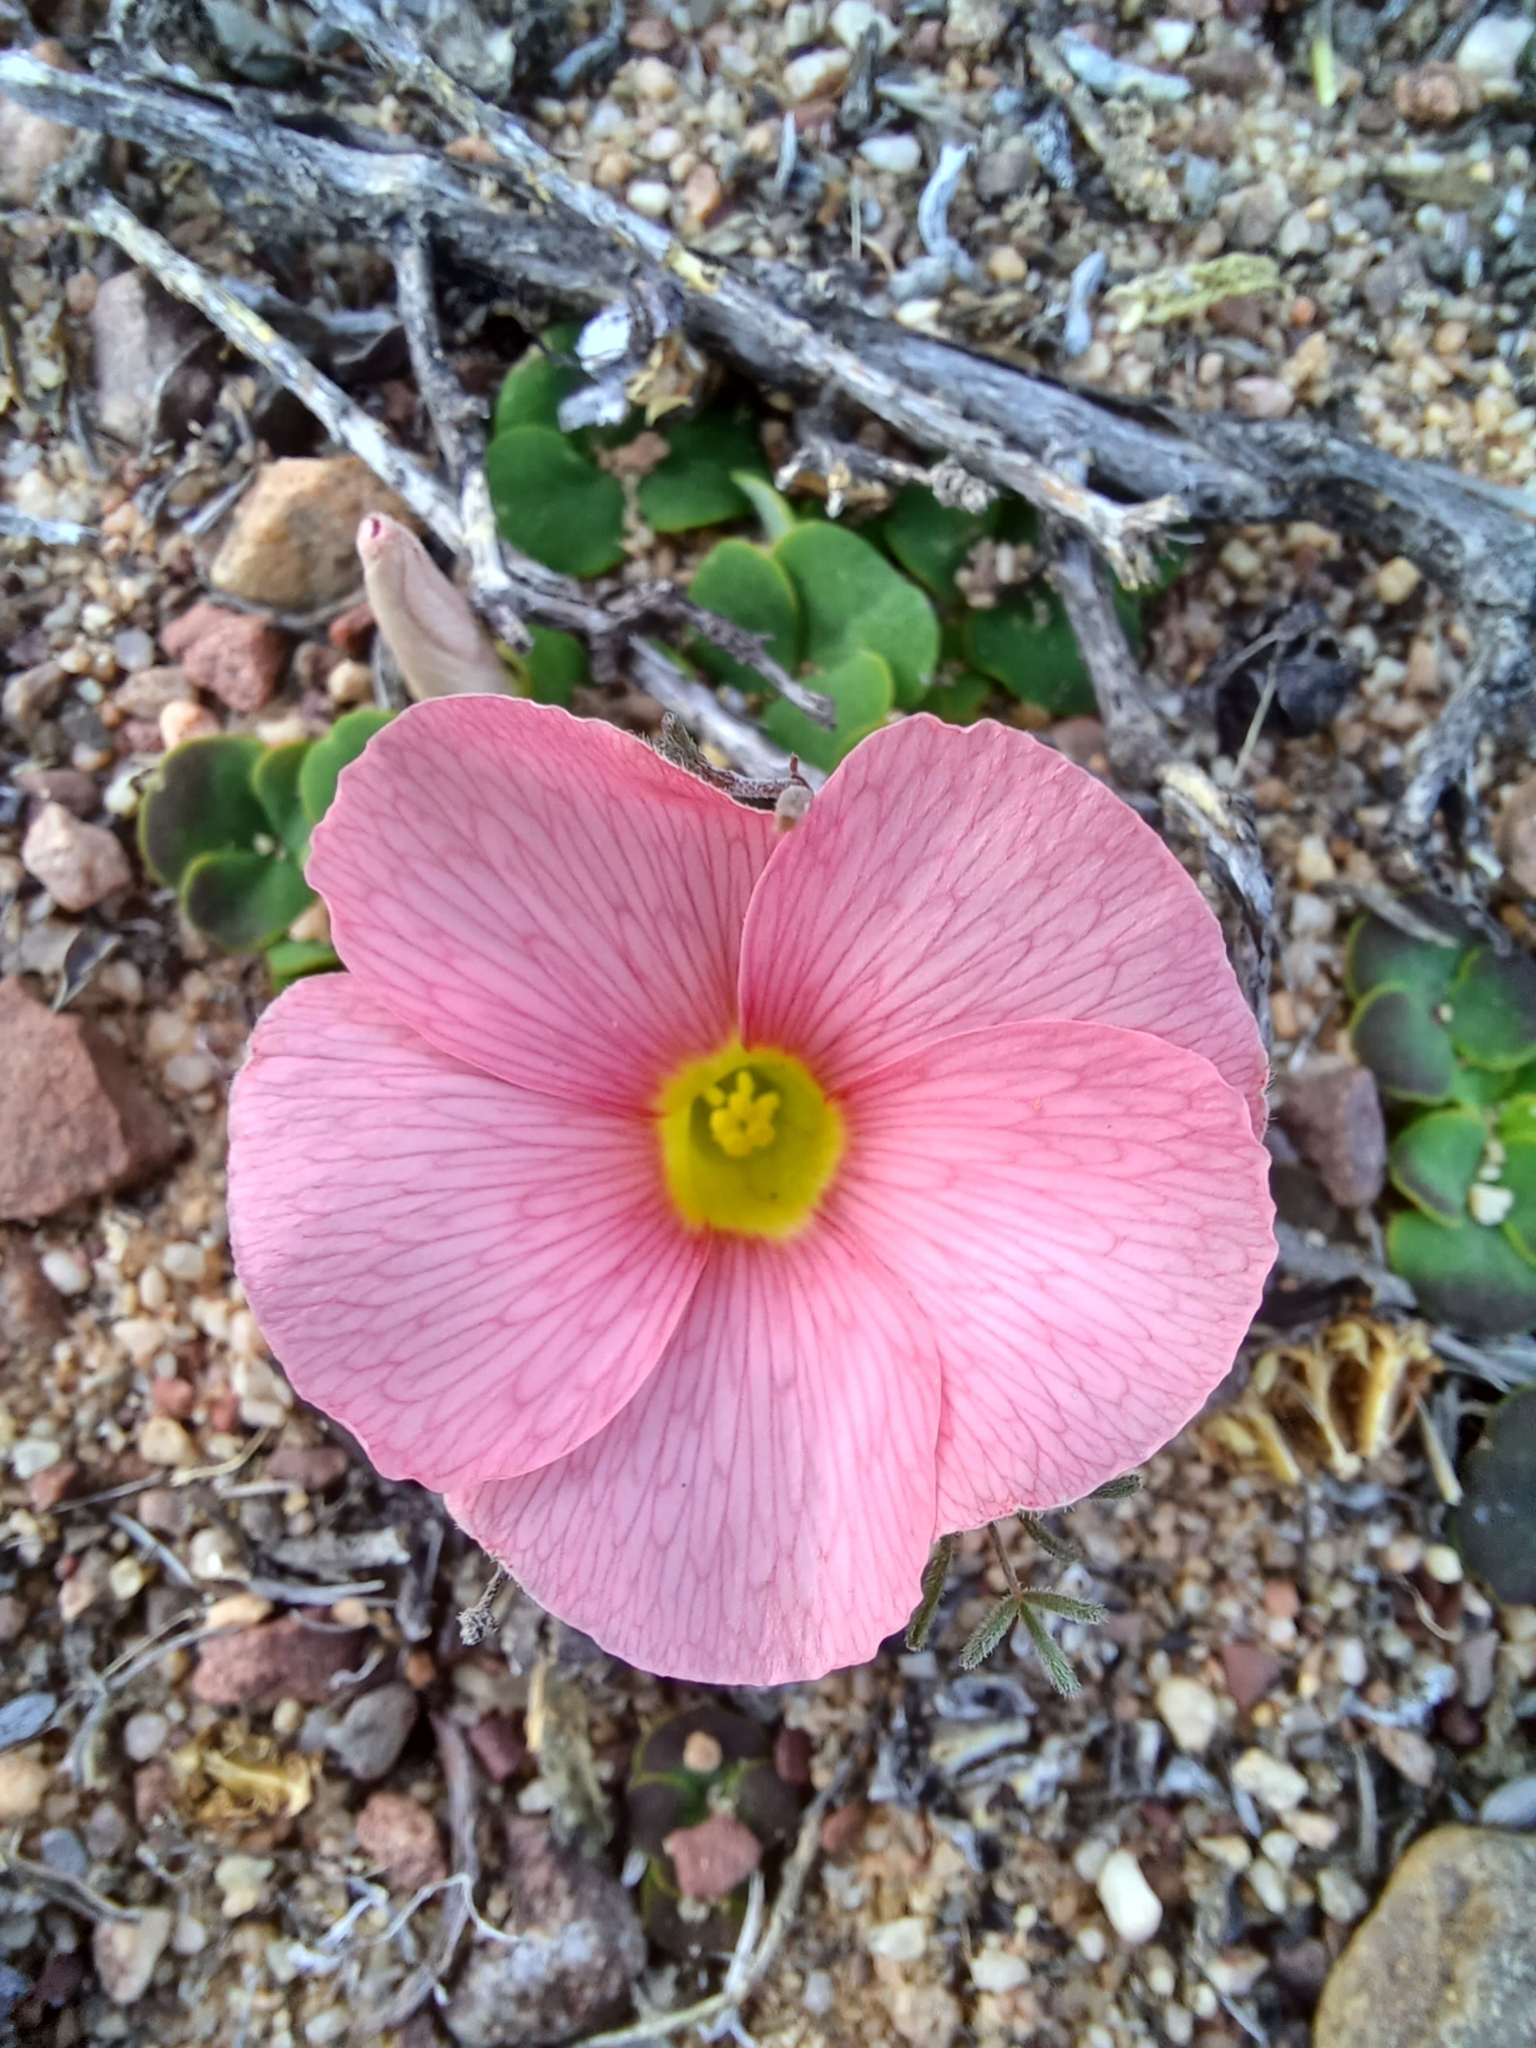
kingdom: Plantae
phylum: Tracheophyta
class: Magnoliopsida
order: Oxalidales
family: Oxalidaceae
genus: Oxalis
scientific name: Oxalis pulchella
